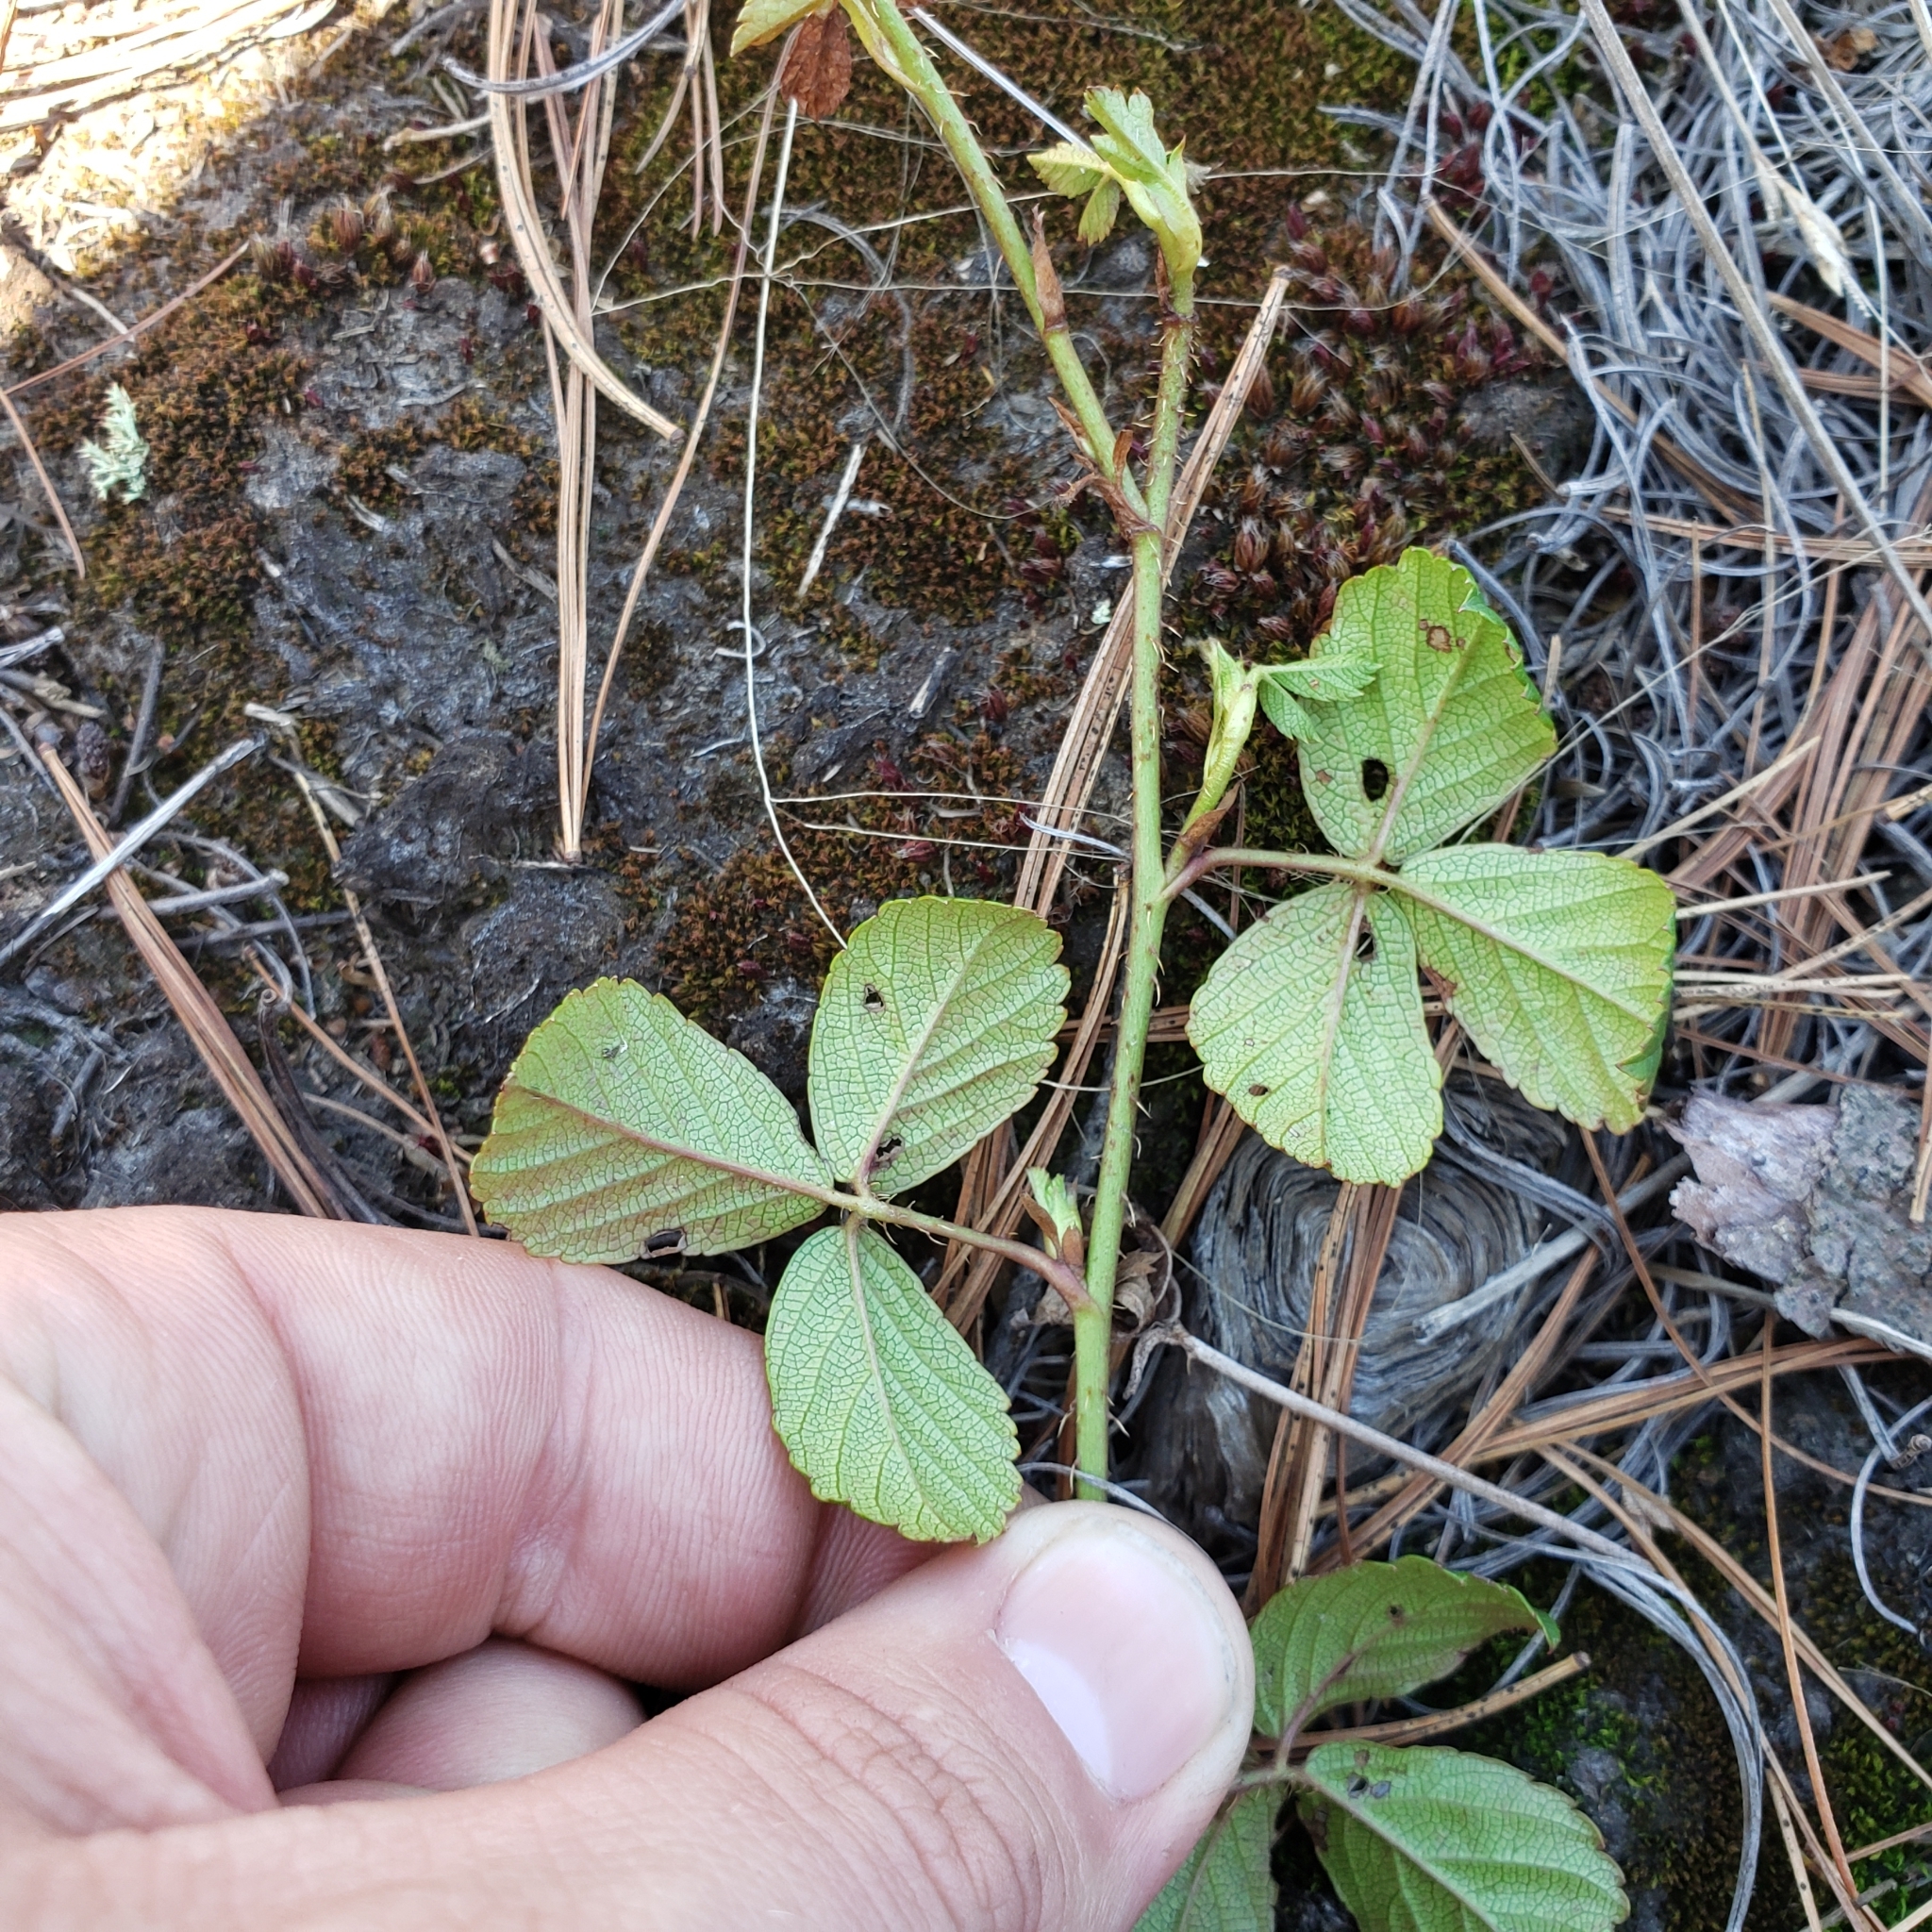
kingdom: Plantae
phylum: Tracheophyta
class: Magnoliopsida
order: Rosales
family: Rosaceae
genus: Rubus
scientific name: Rubus hispidus
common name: Running blackberry
